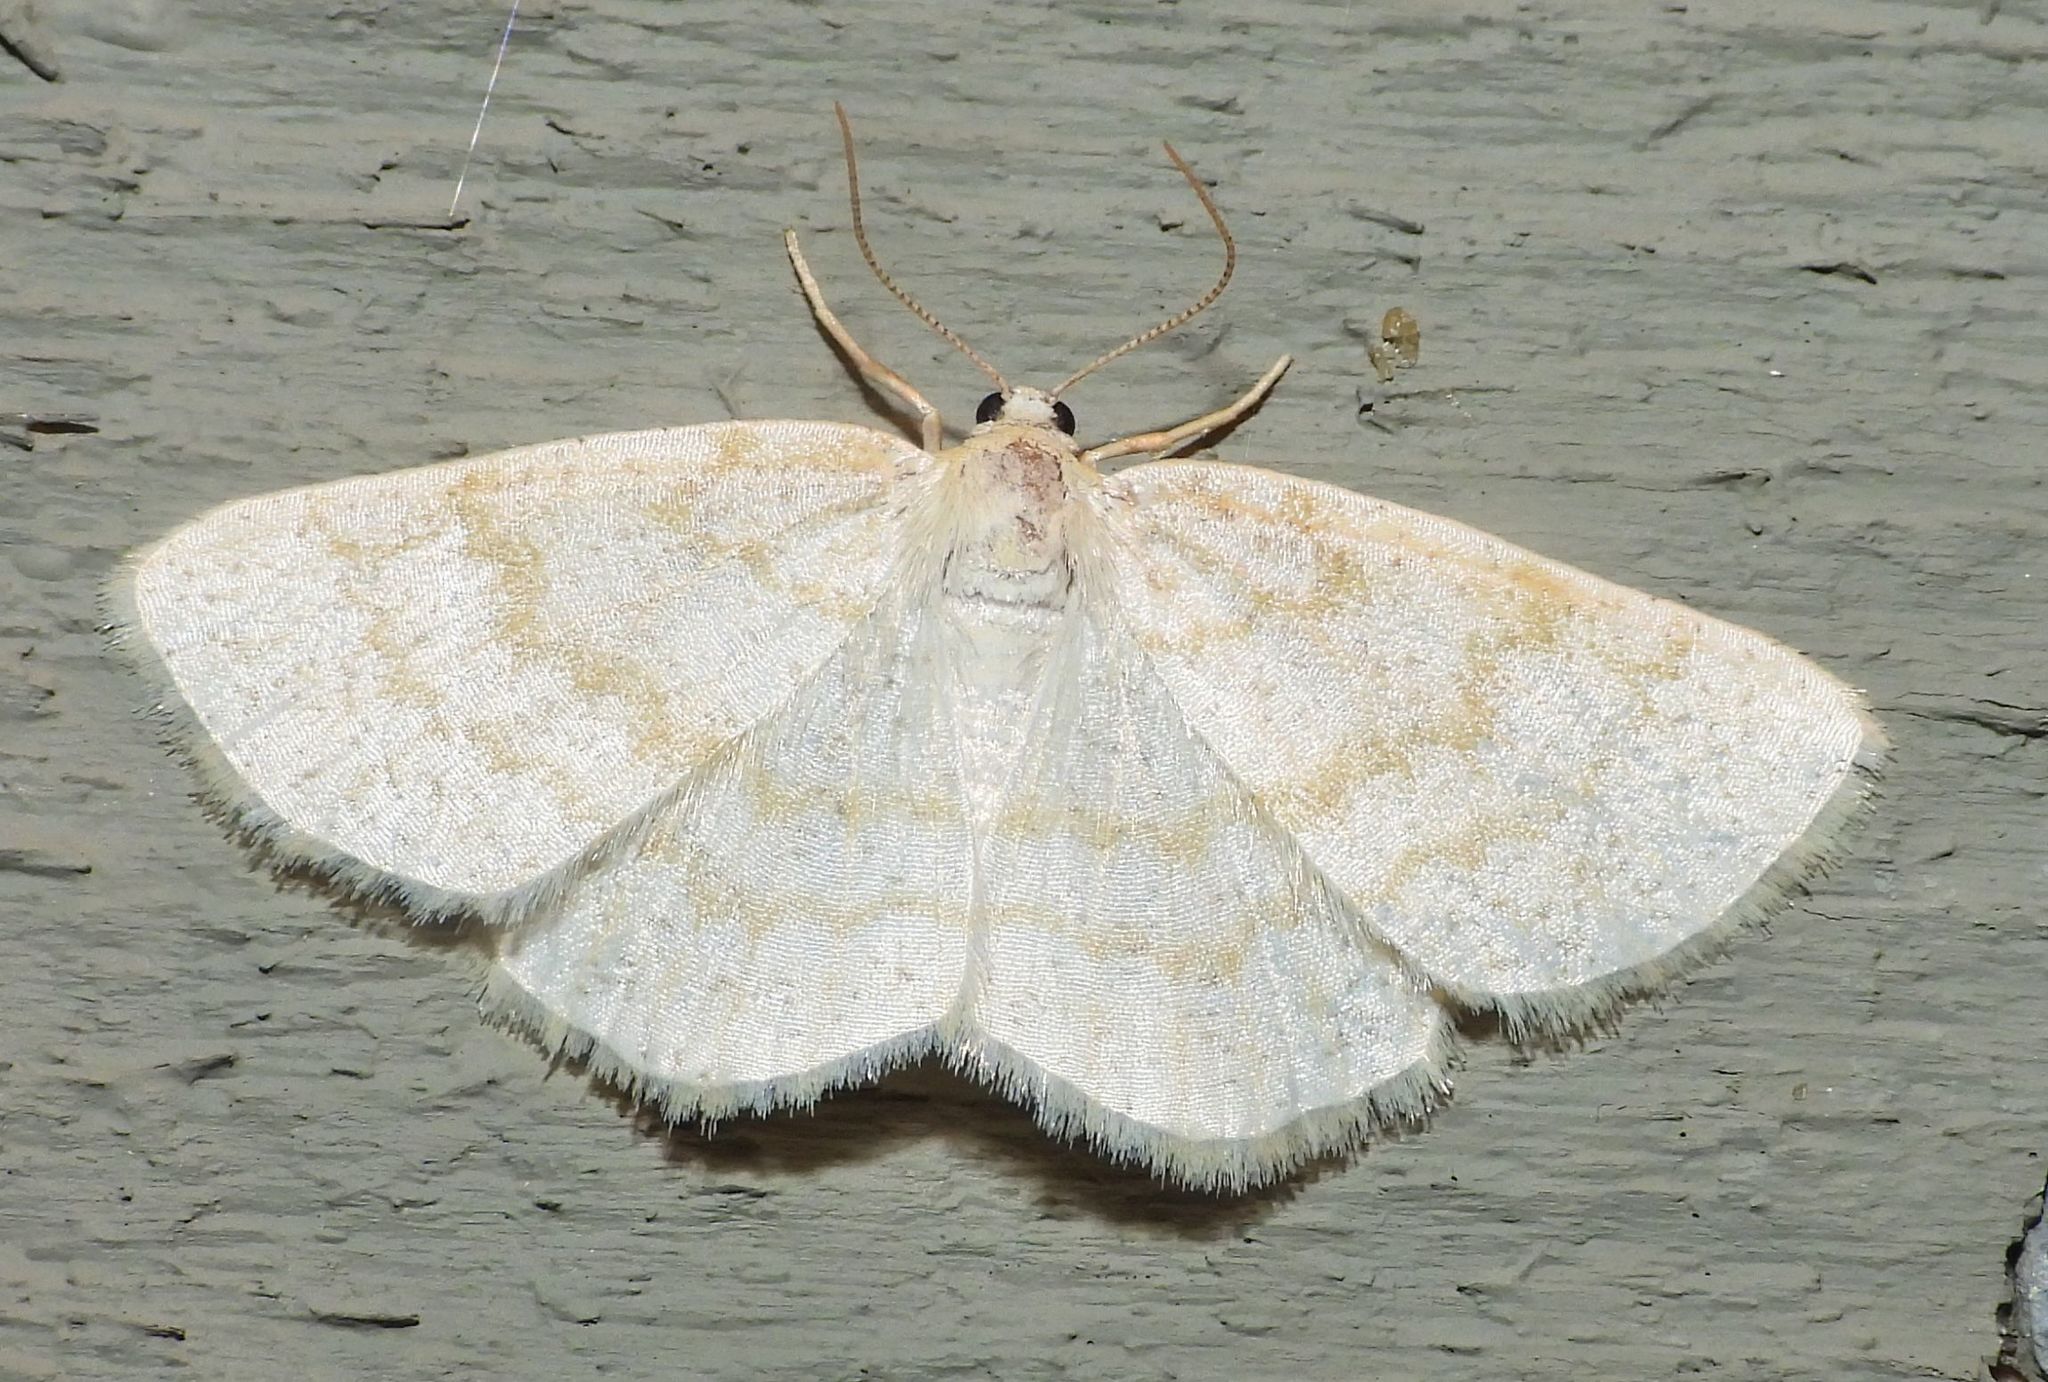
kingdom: Animalia
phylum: Arthropoda
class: Insecta
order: Lepidoptera
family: Geometridae
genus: Cabera
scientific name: Cabera erythemaria
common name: Yellow-dusted cream moth
